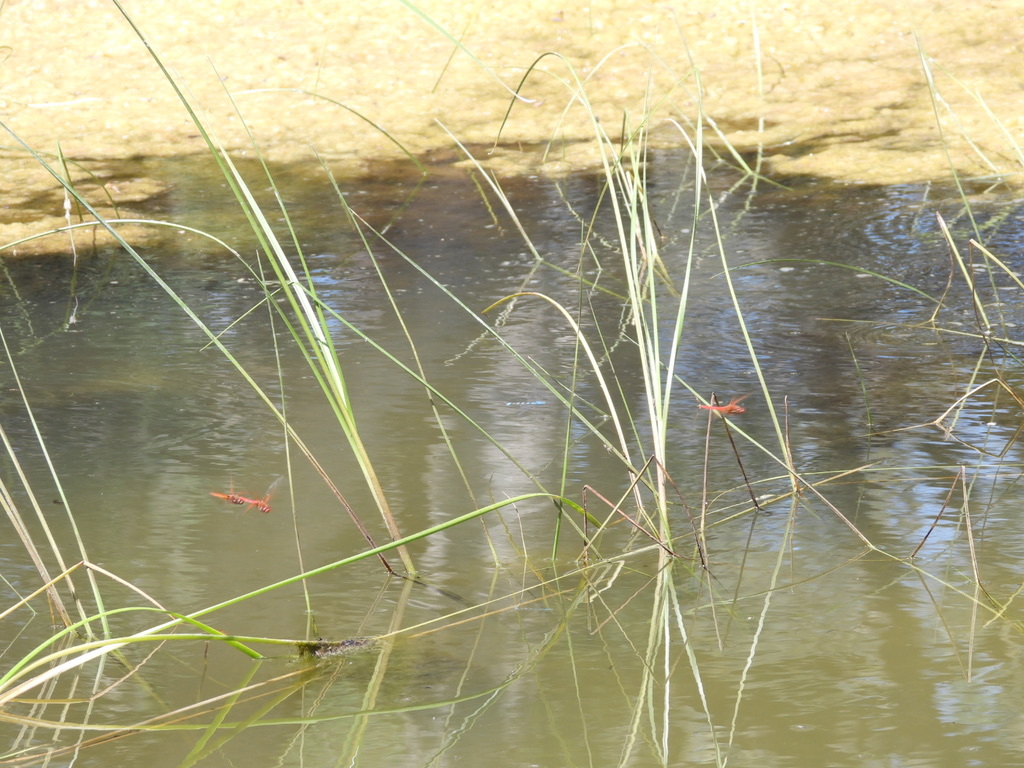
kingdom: Animalia
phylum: Arthropoda
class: Insecta
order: Odonata
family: Libellulidae
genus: Sympetrum
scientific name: Sympetrum illotum
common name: Cardinal meadowhawk
